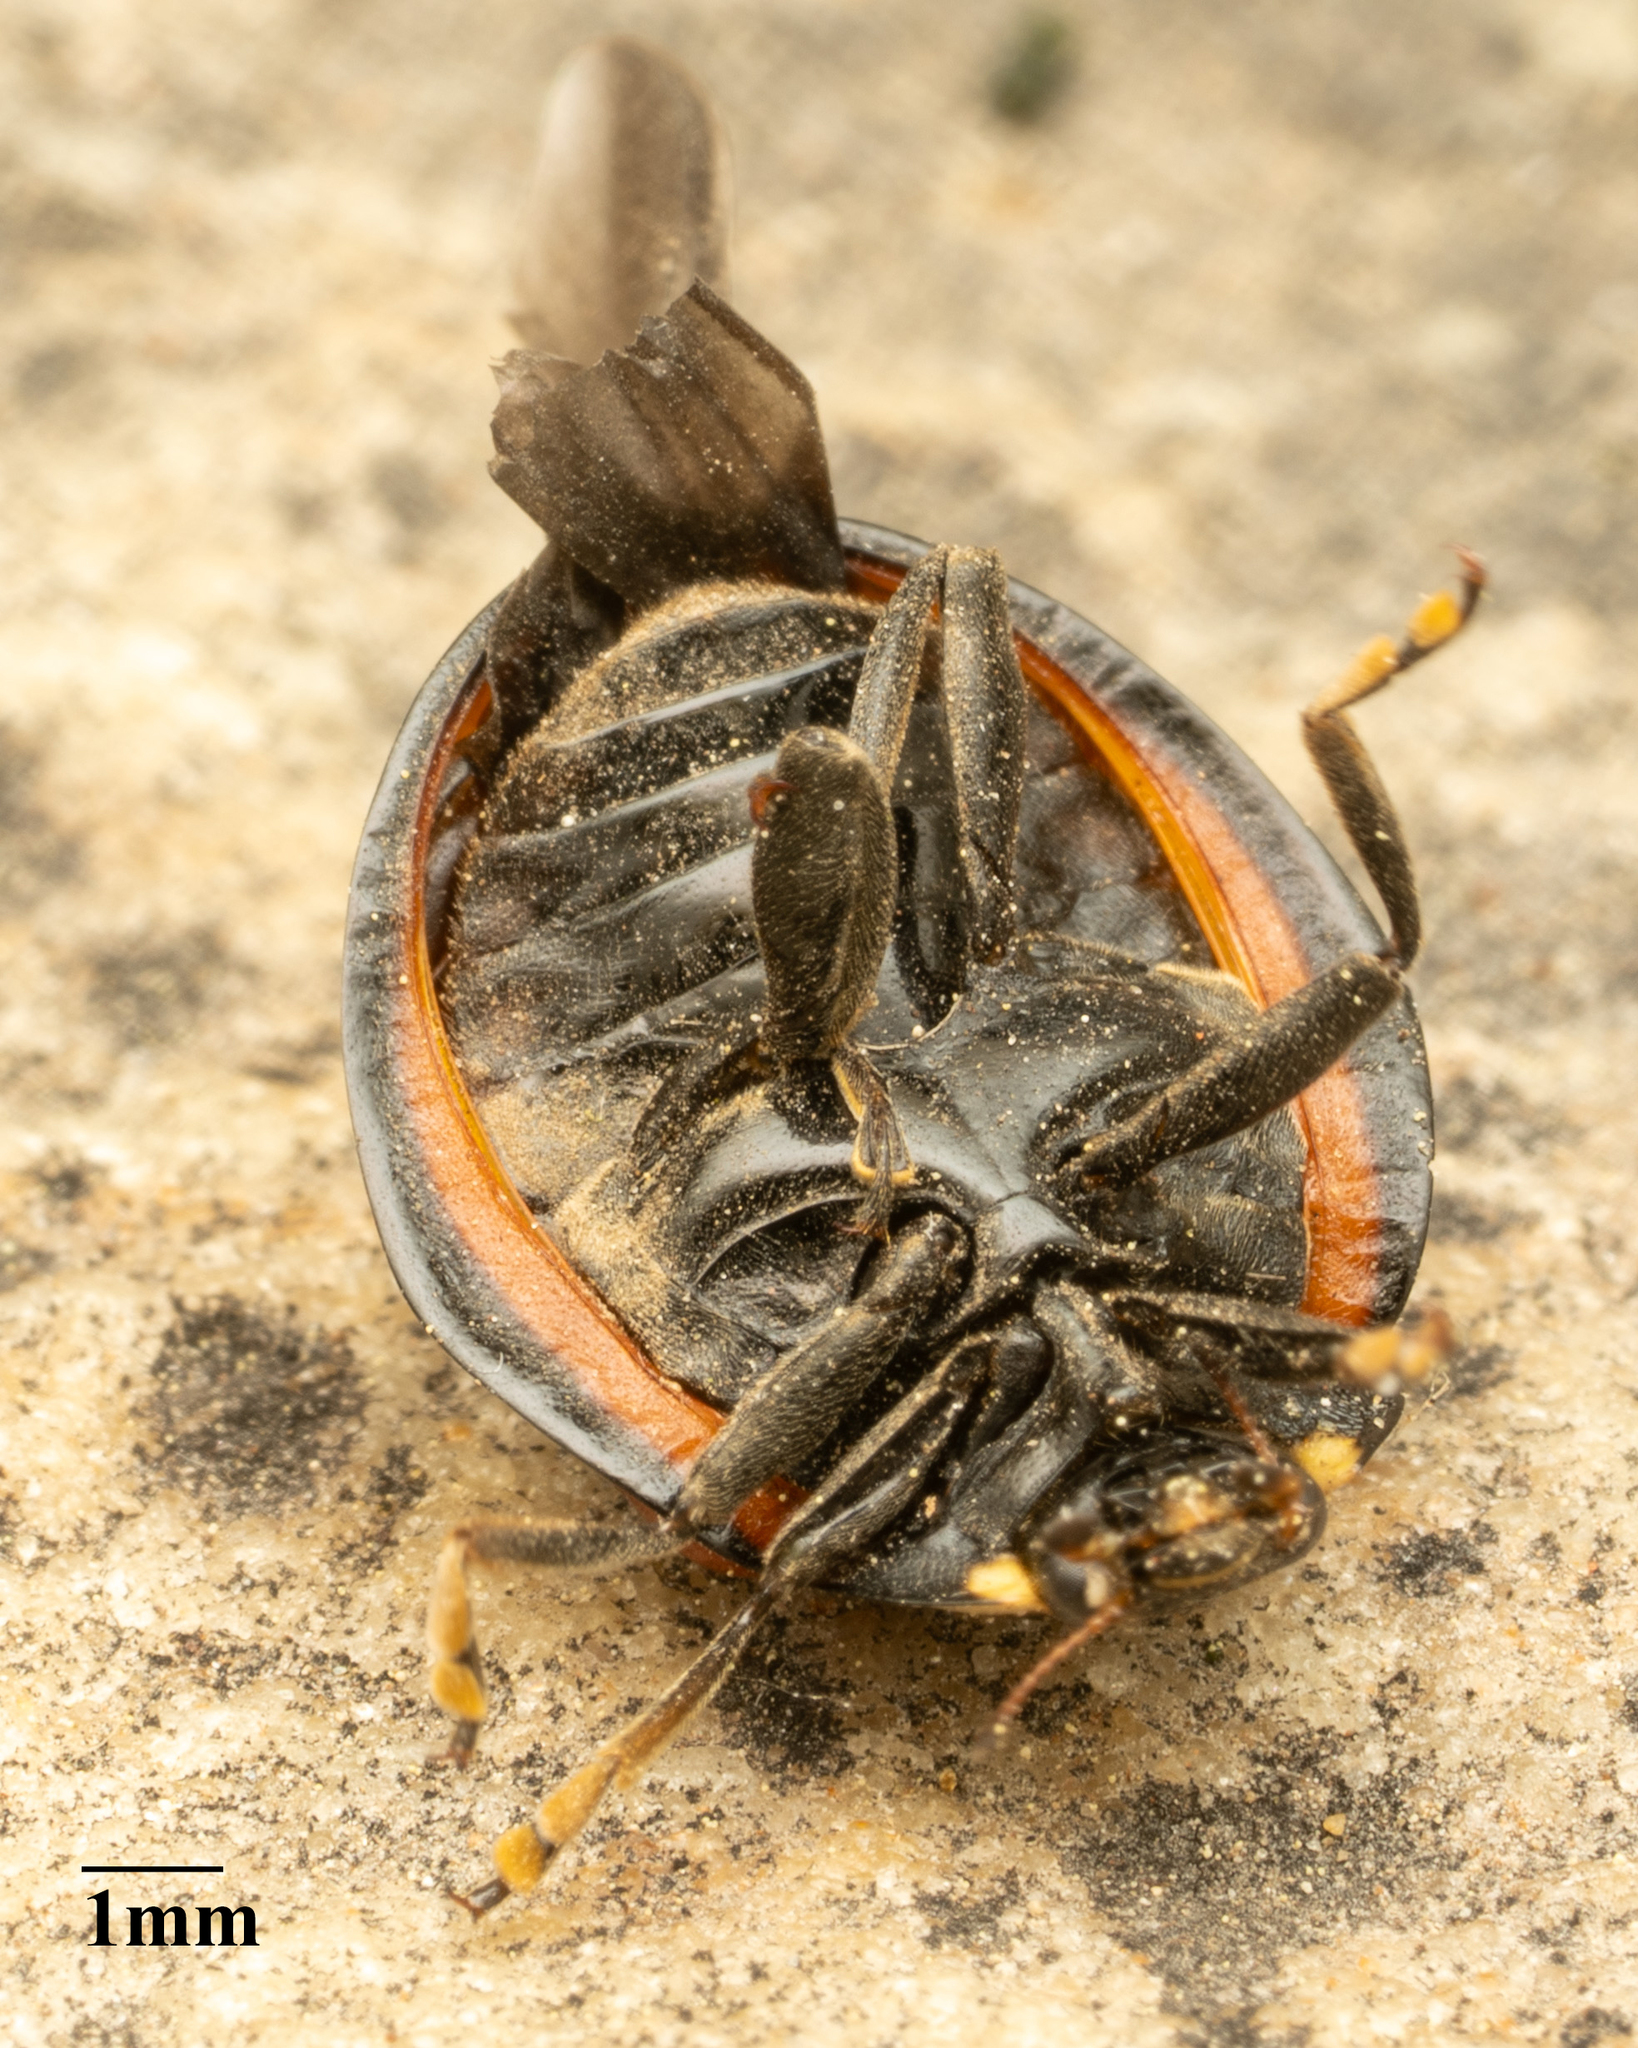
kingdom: Animalia
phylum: Arthropoda
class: Insecta
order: Coleoptera
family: Coccinellidae
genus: Anatis
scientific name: Anatis lecontei
